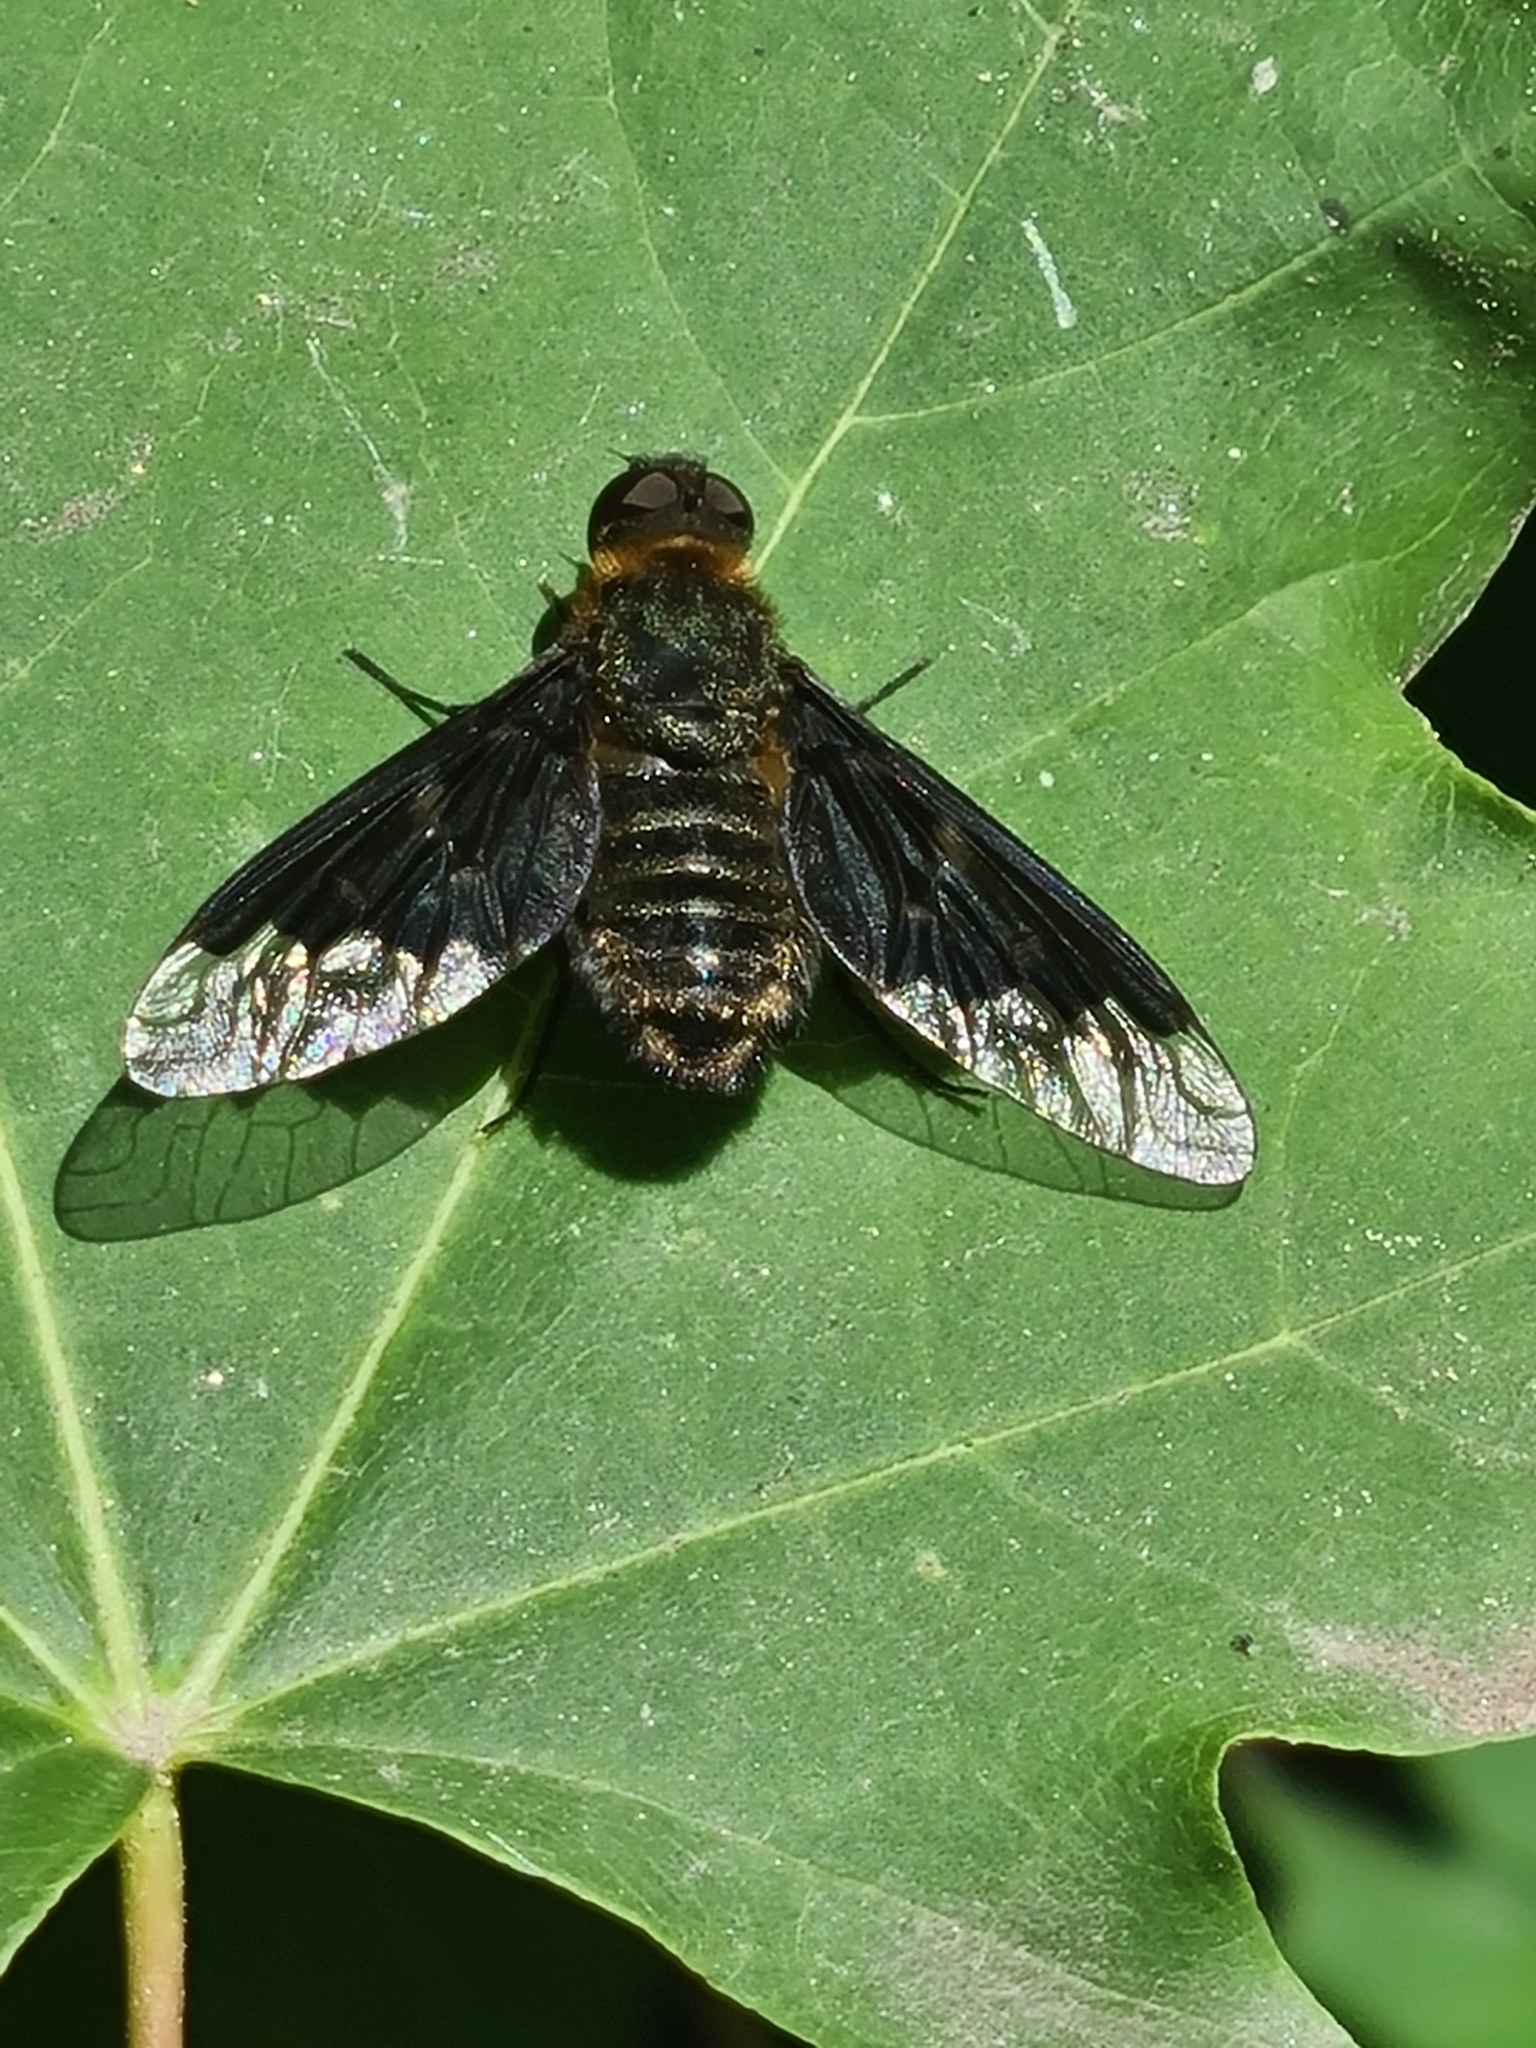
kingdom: Animalia
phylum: Arthropoda
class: Insecta
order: Diptera
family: Bombyliidae
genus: Hemipenthes
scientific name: Hemipenthes morio
